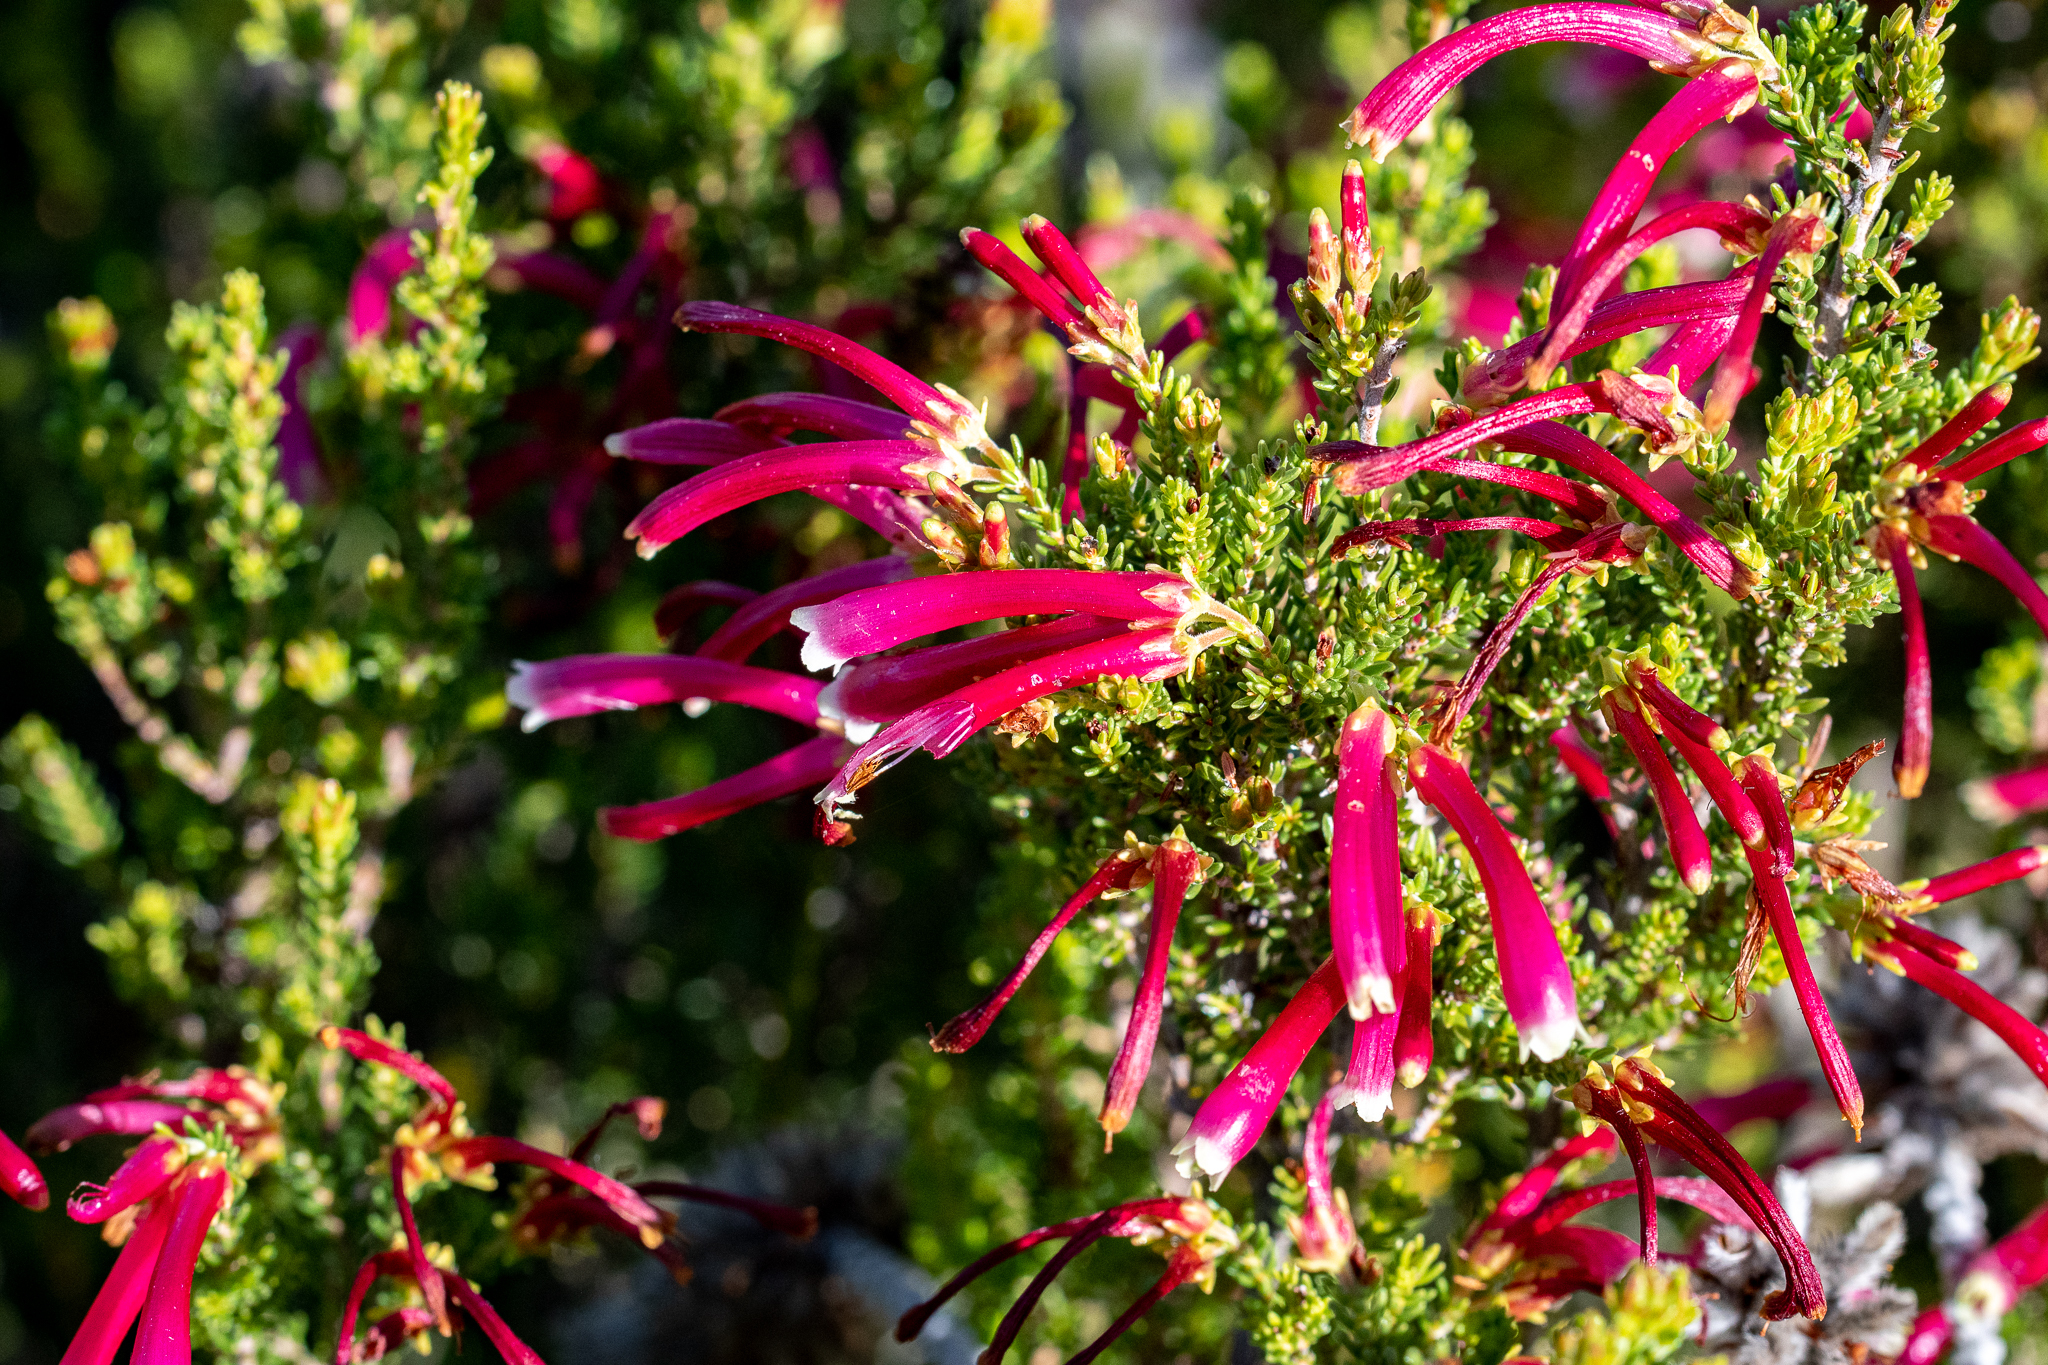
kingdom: Plantae
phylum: Tracheophyta
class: Magnoliopsida
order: Ericales
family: Ericaceae
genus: Erica
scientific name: Erica discolor
